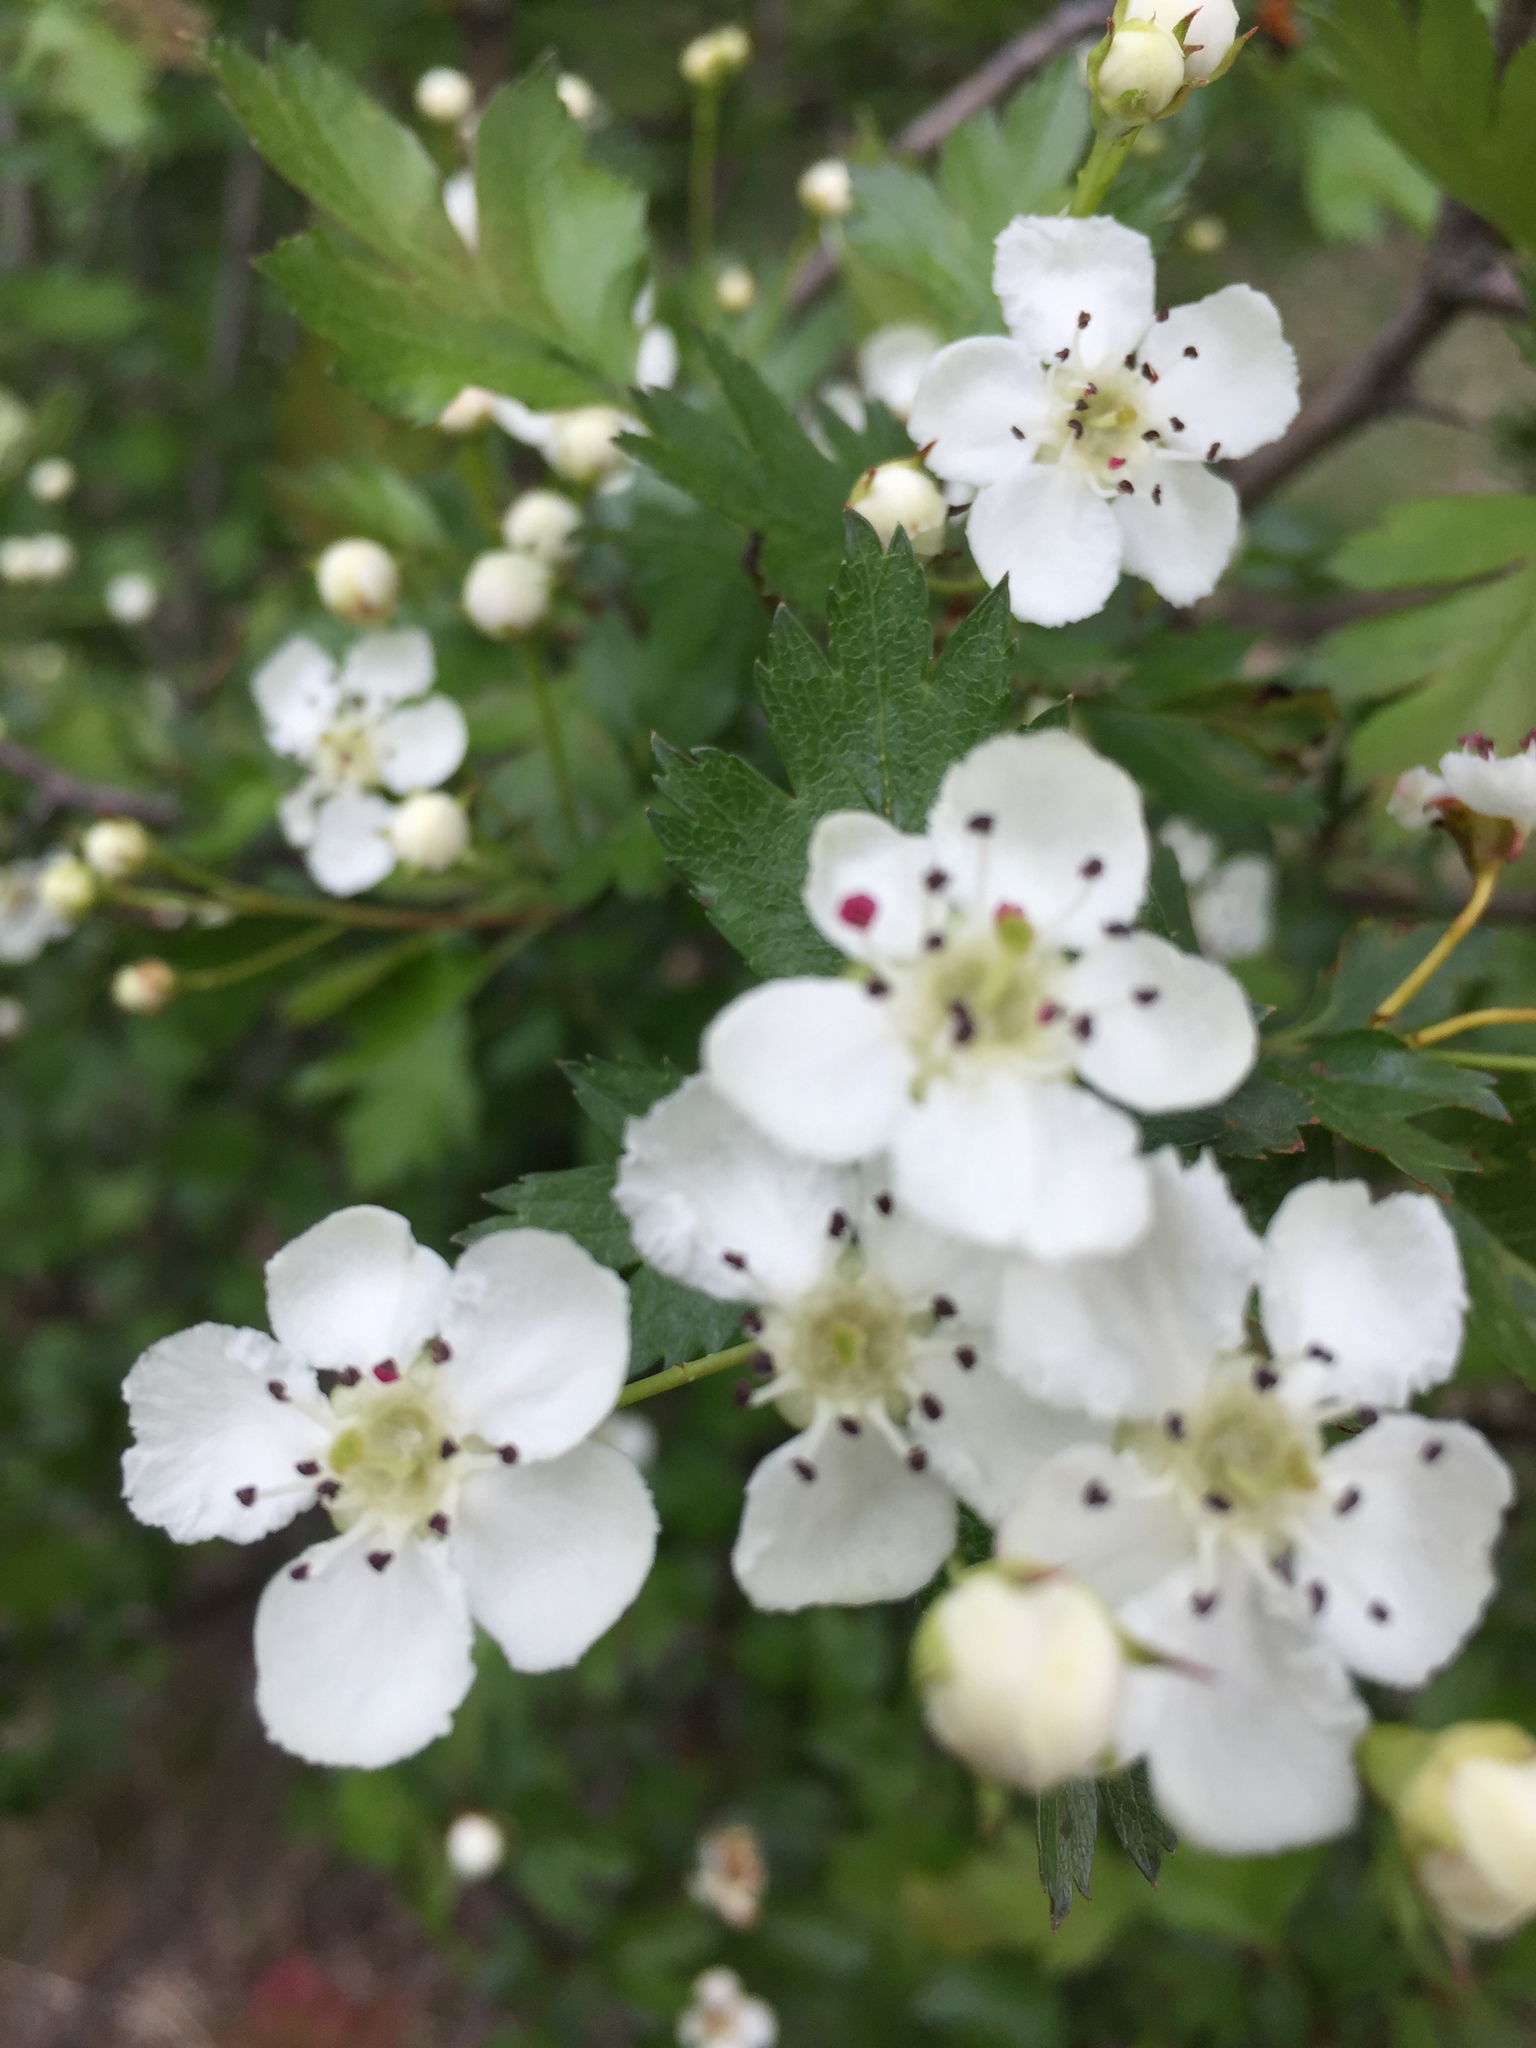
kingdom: Plantae
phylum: Tracheophyta
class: Magnoliopsida
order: Rosales
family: Rosaceae
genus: Crataegus
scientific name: Crataegus monogyna
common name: Hawthorn
